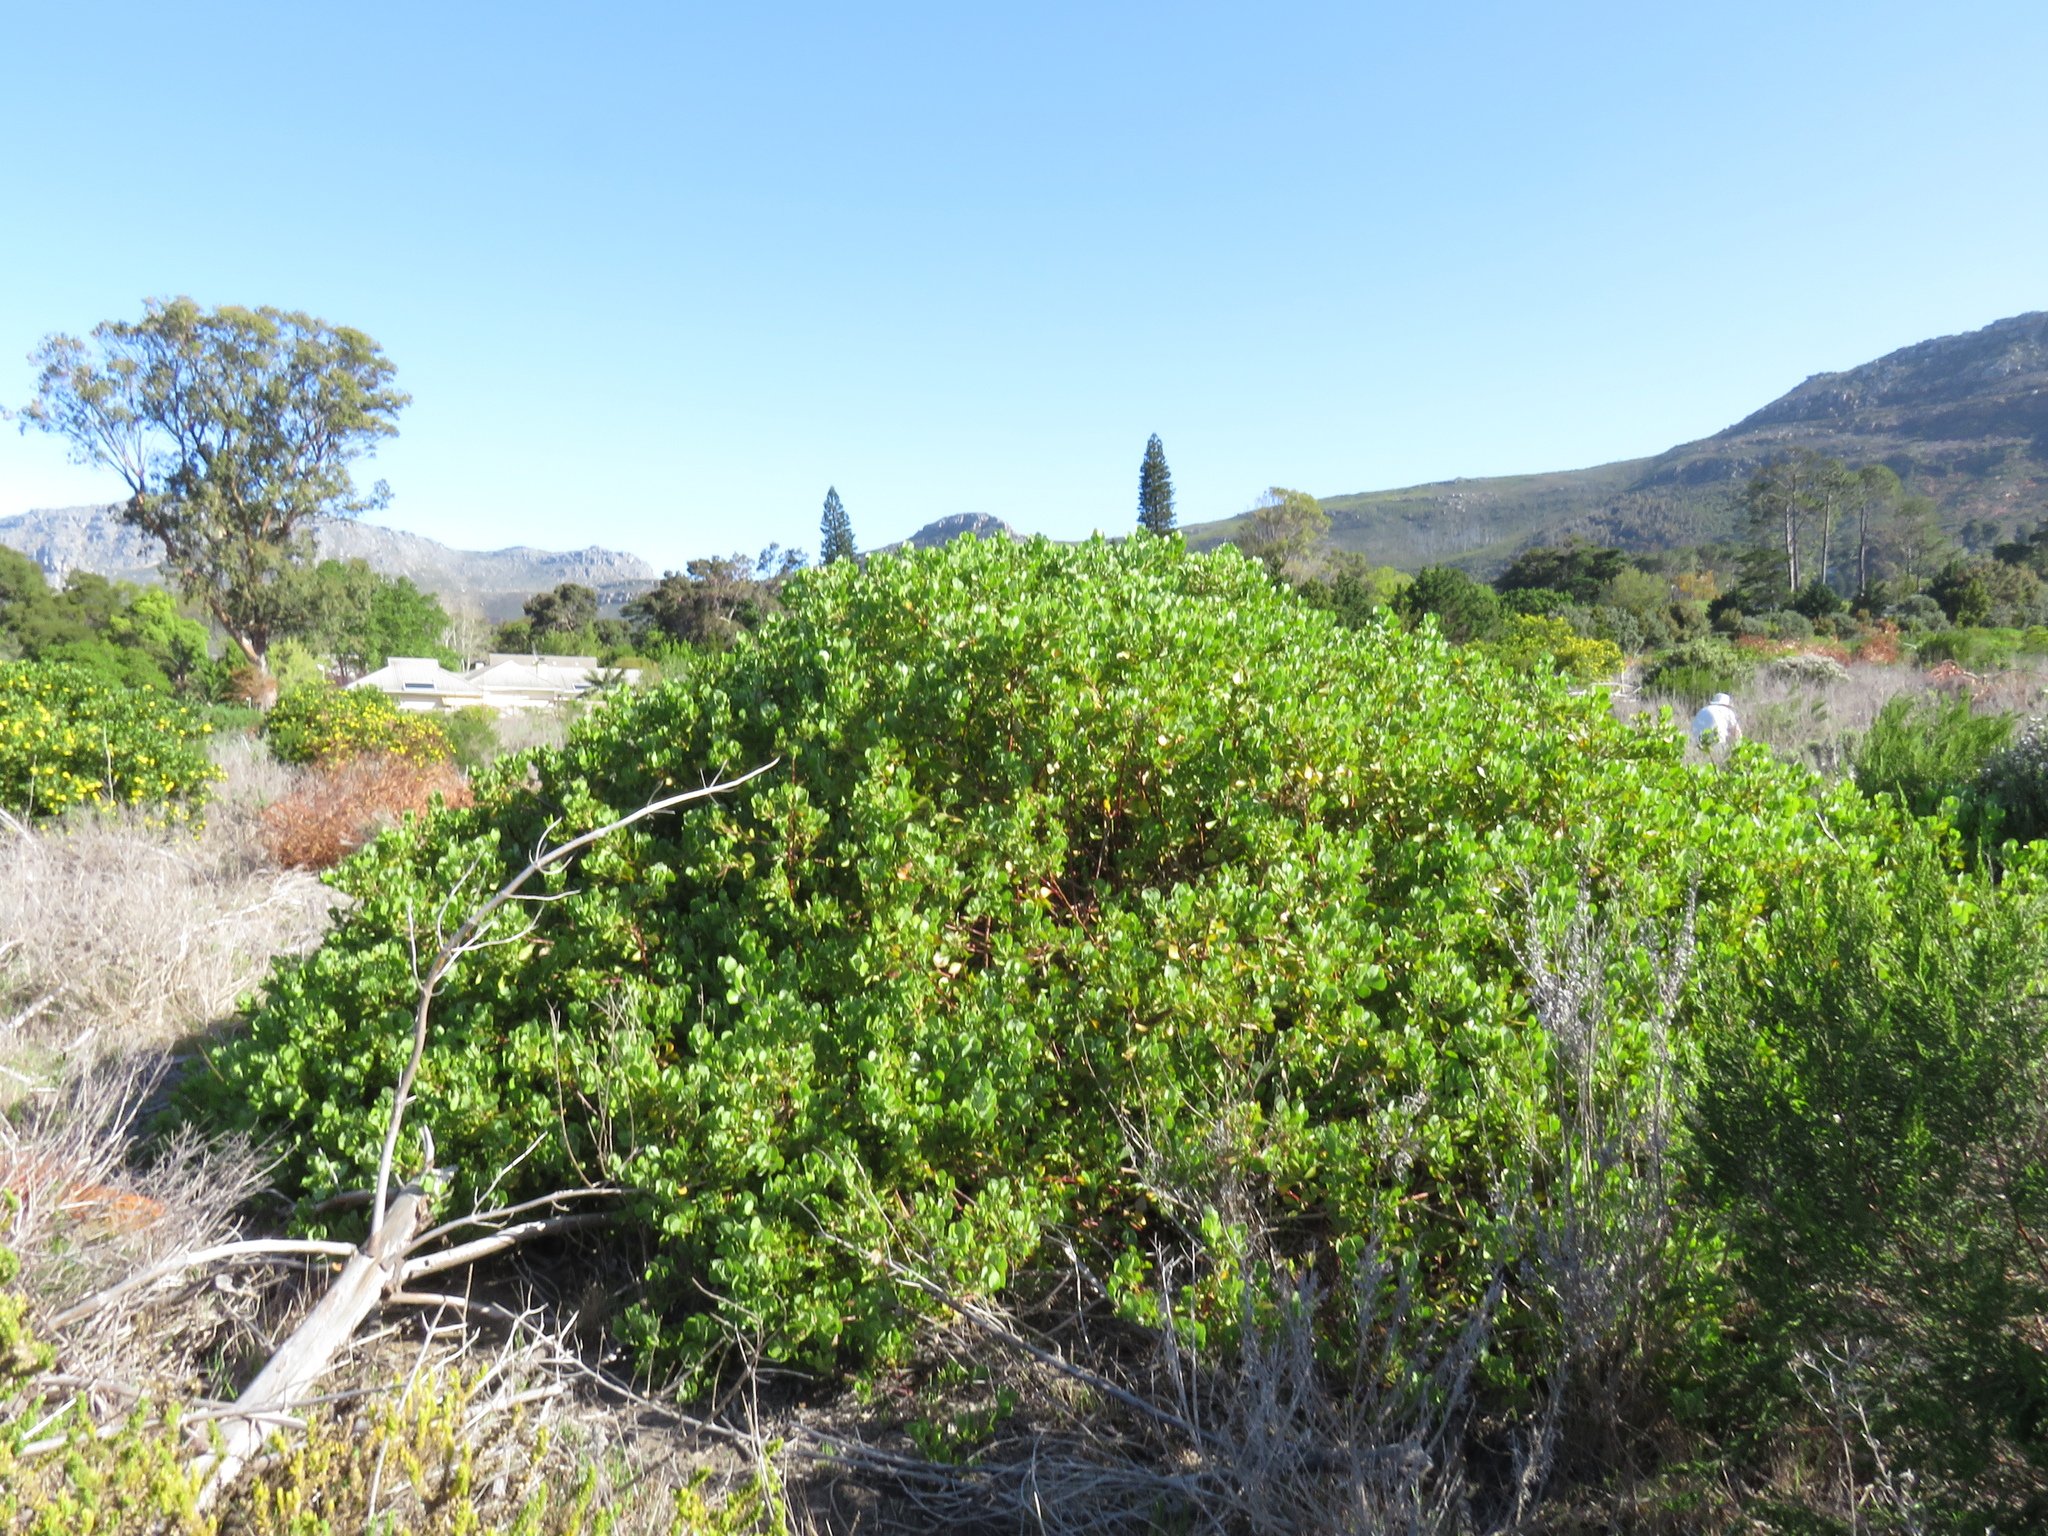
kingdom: Plantae
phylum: Tracheophyta
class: Magnoliopsida
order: Asterales
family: Asteraceae
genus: Osteospermum
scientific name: Osteospermum moniliferum
